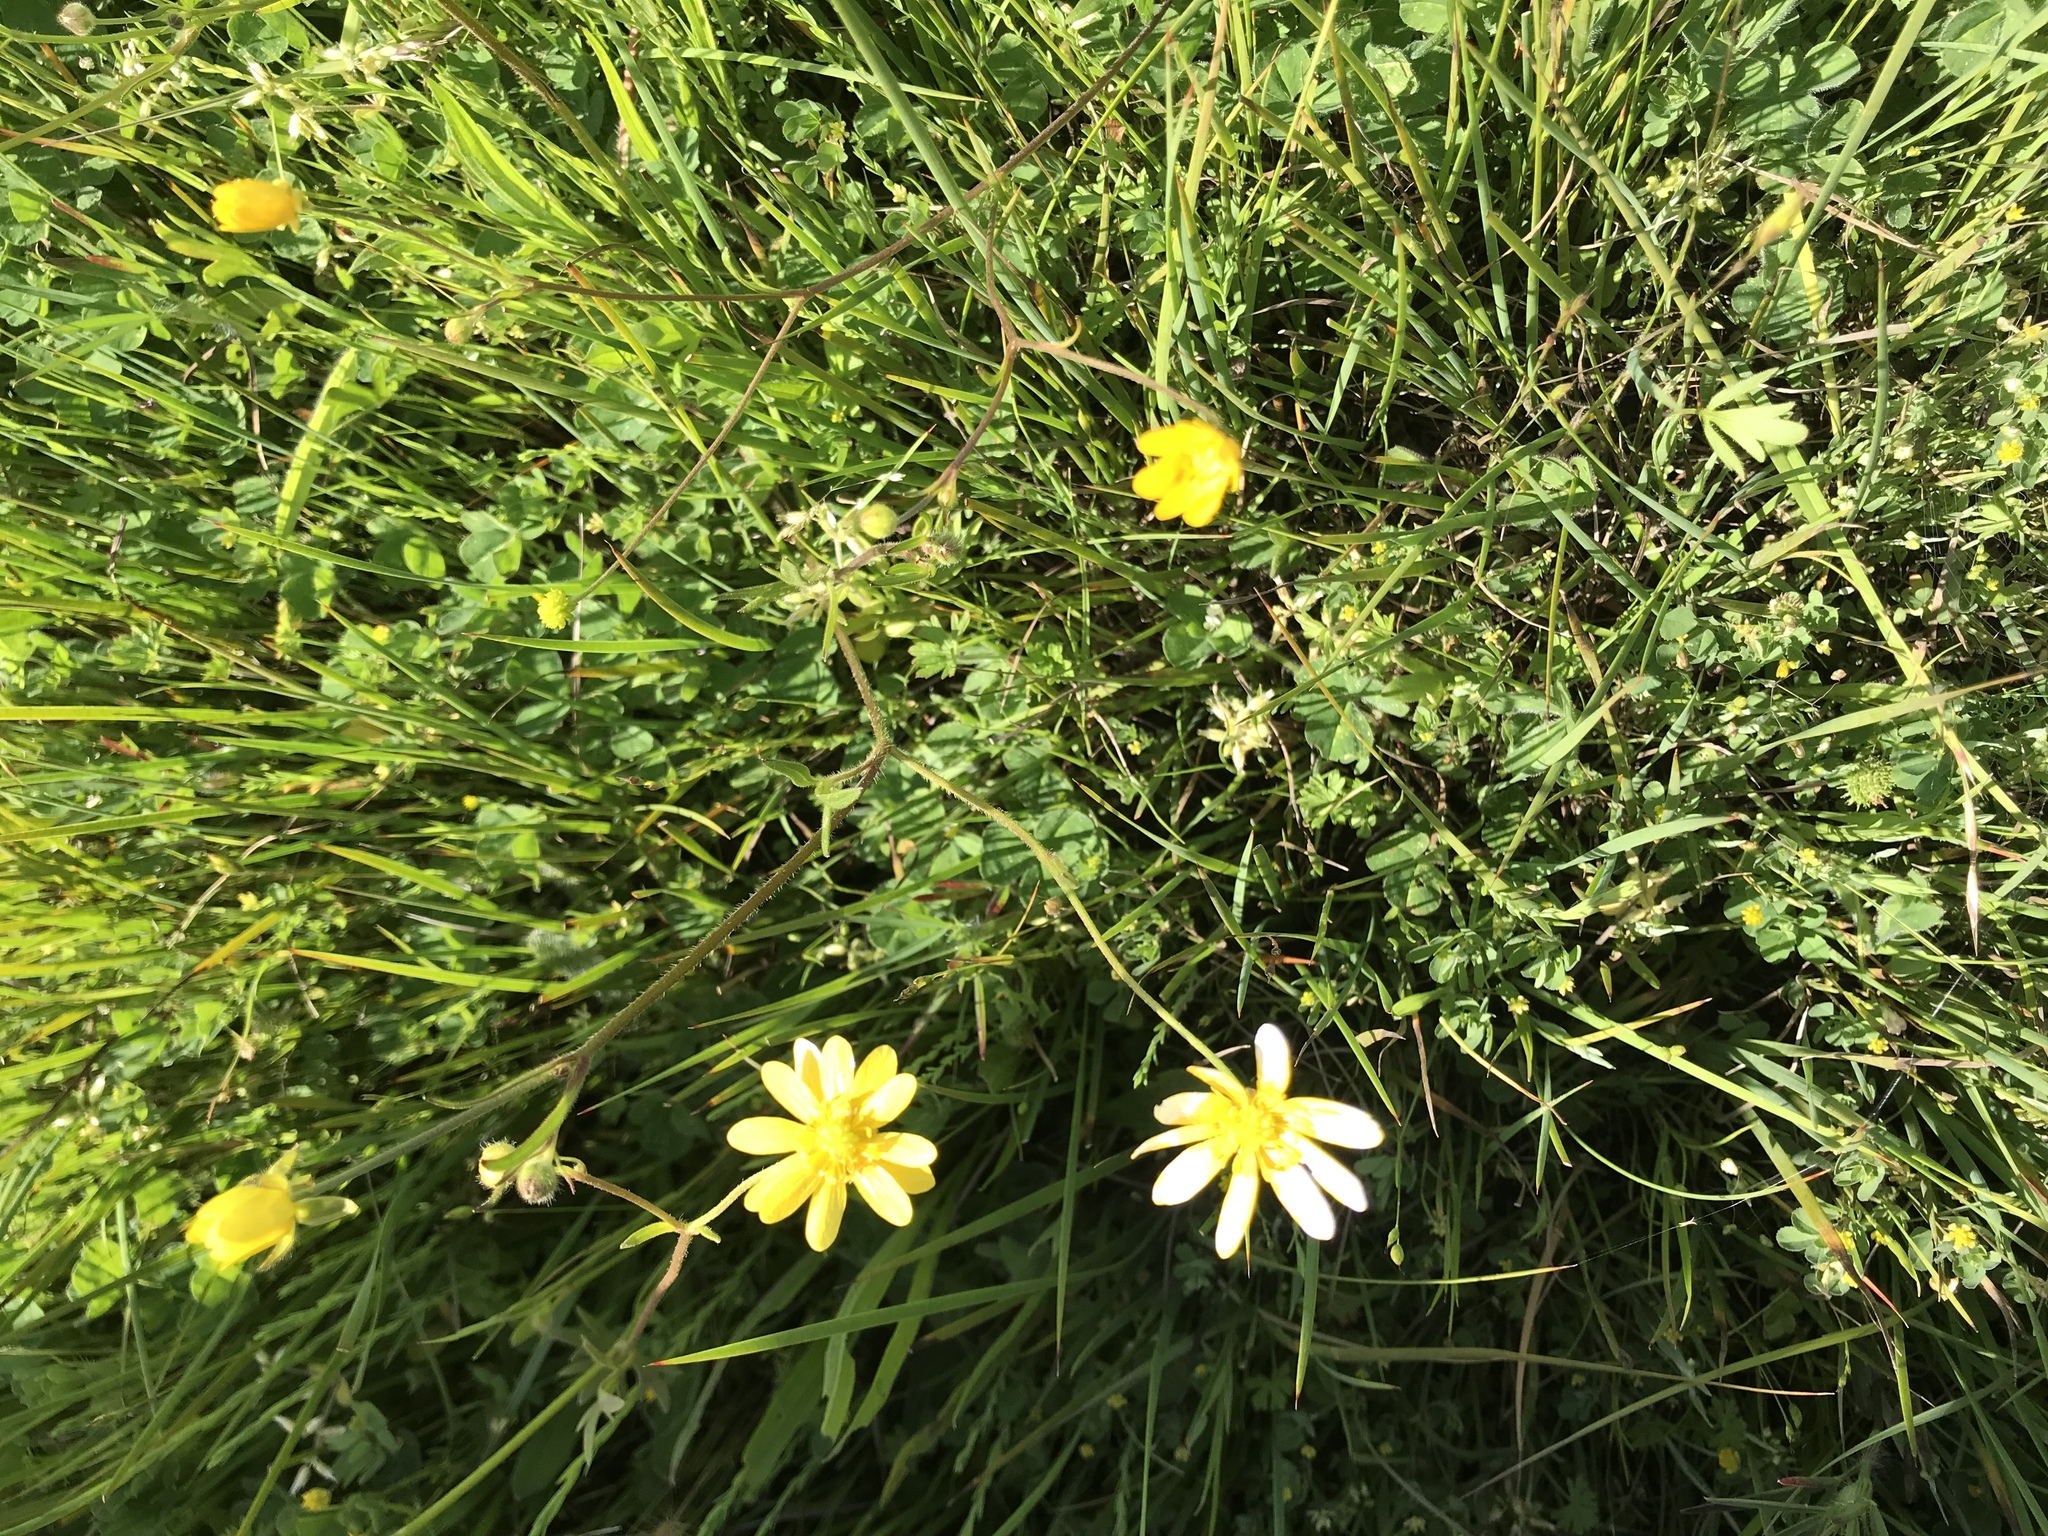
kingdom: Plantae
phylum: Tracheophyta
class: Magnoliopsida
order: Ranunculales
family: Ranunculaceae
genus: Ranunculus
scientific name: Ranunculus californicus
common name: California buttercup
